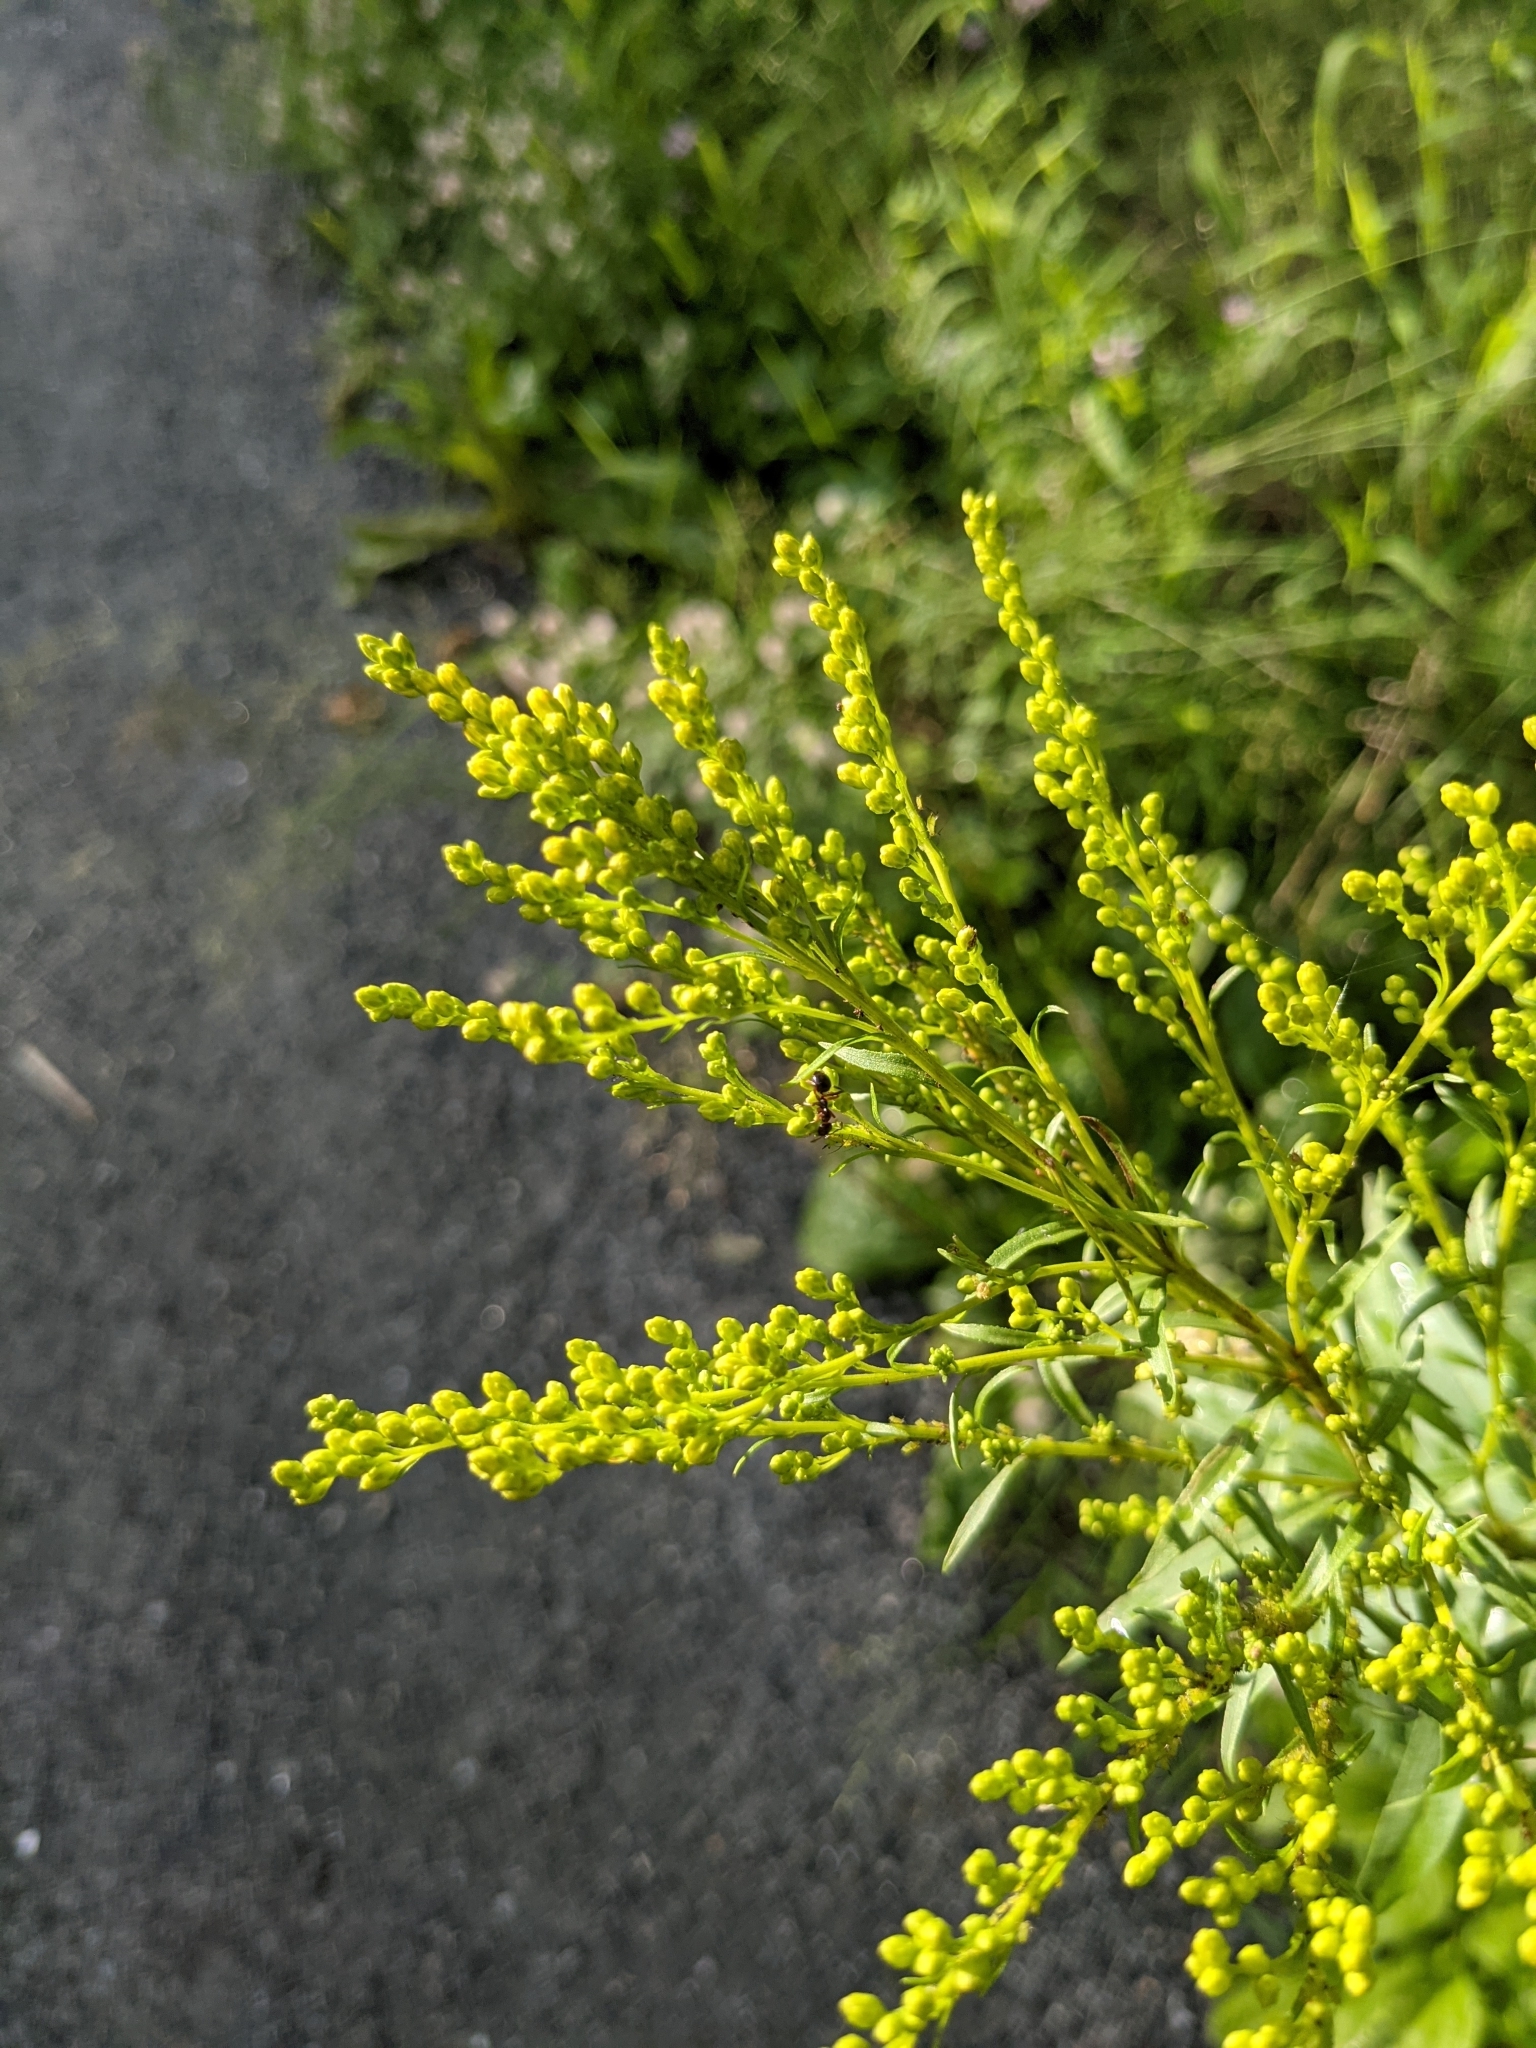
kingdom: Plantae
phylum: Tracheophyta
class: Magnoliopsida
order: Asterales
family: Asteraceae
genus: Solidago
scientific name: Solidago juncea
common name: Early goldenrod
